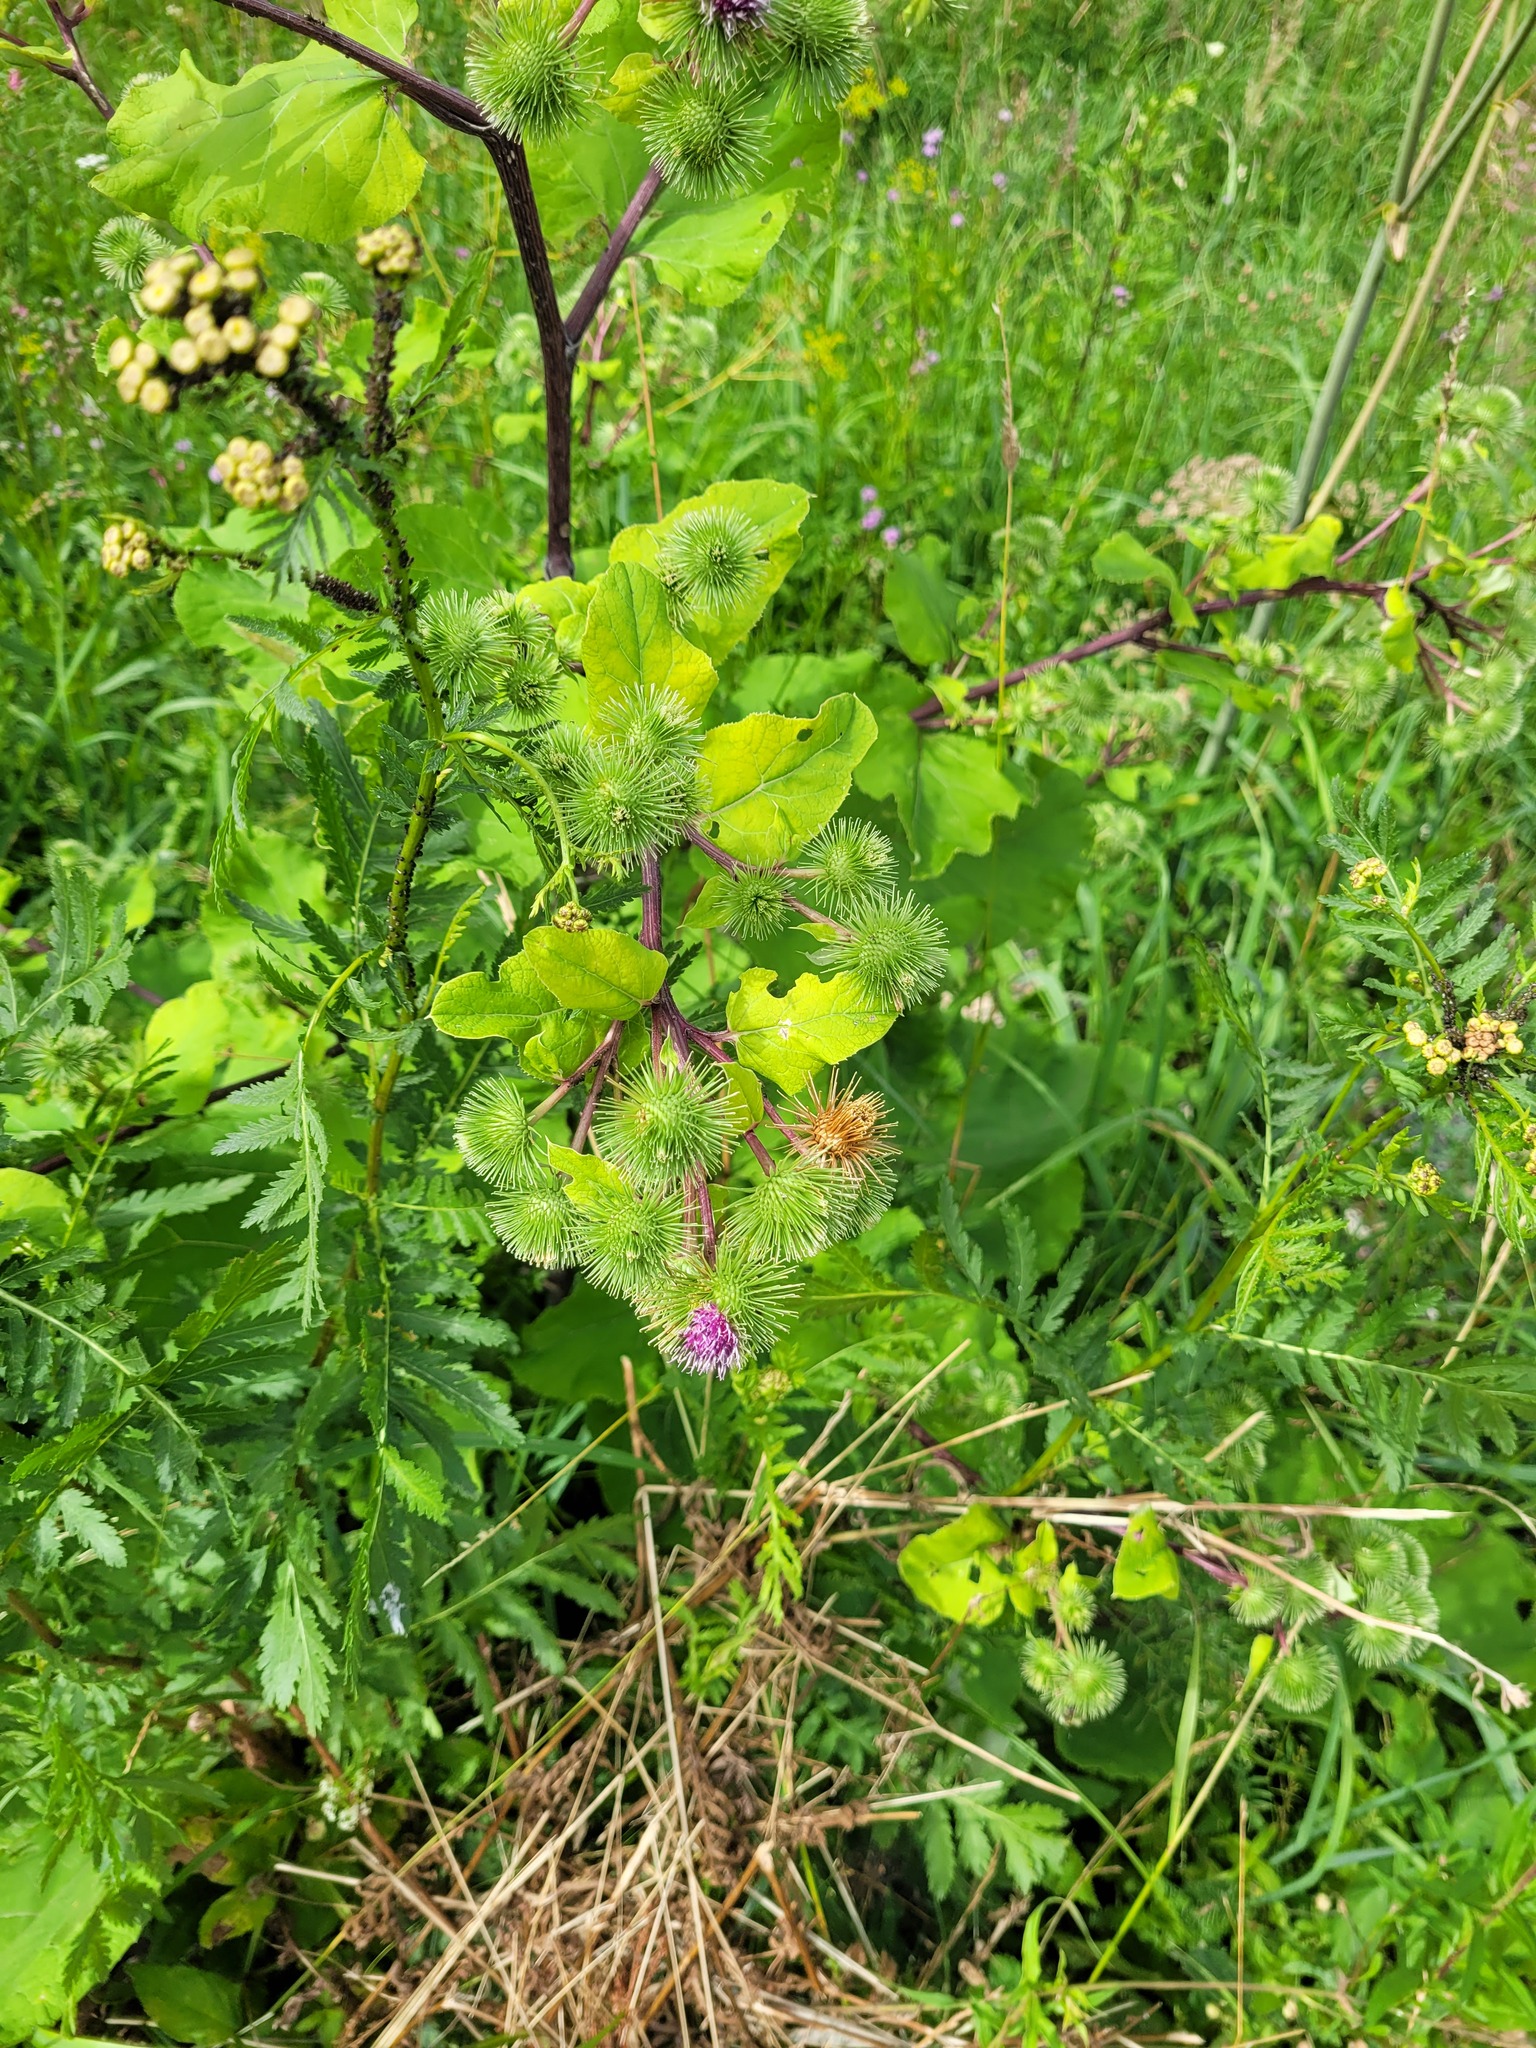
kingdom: Plantae
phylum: Tracheophyta
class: Magnoliopsida
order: Asterales
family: Asteraceae
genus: Arctium
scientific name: Arctium lappa
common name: Greater burdock
